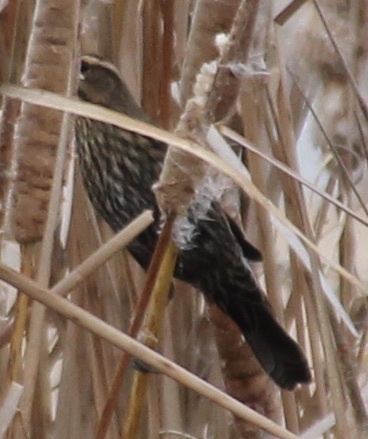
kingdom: Animalia
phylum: Chordata
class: Aves
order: Passeriformes
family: Icteridae
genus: Agelaius
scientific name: Agelaius phoeniceus
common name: Red-winged blackbird
